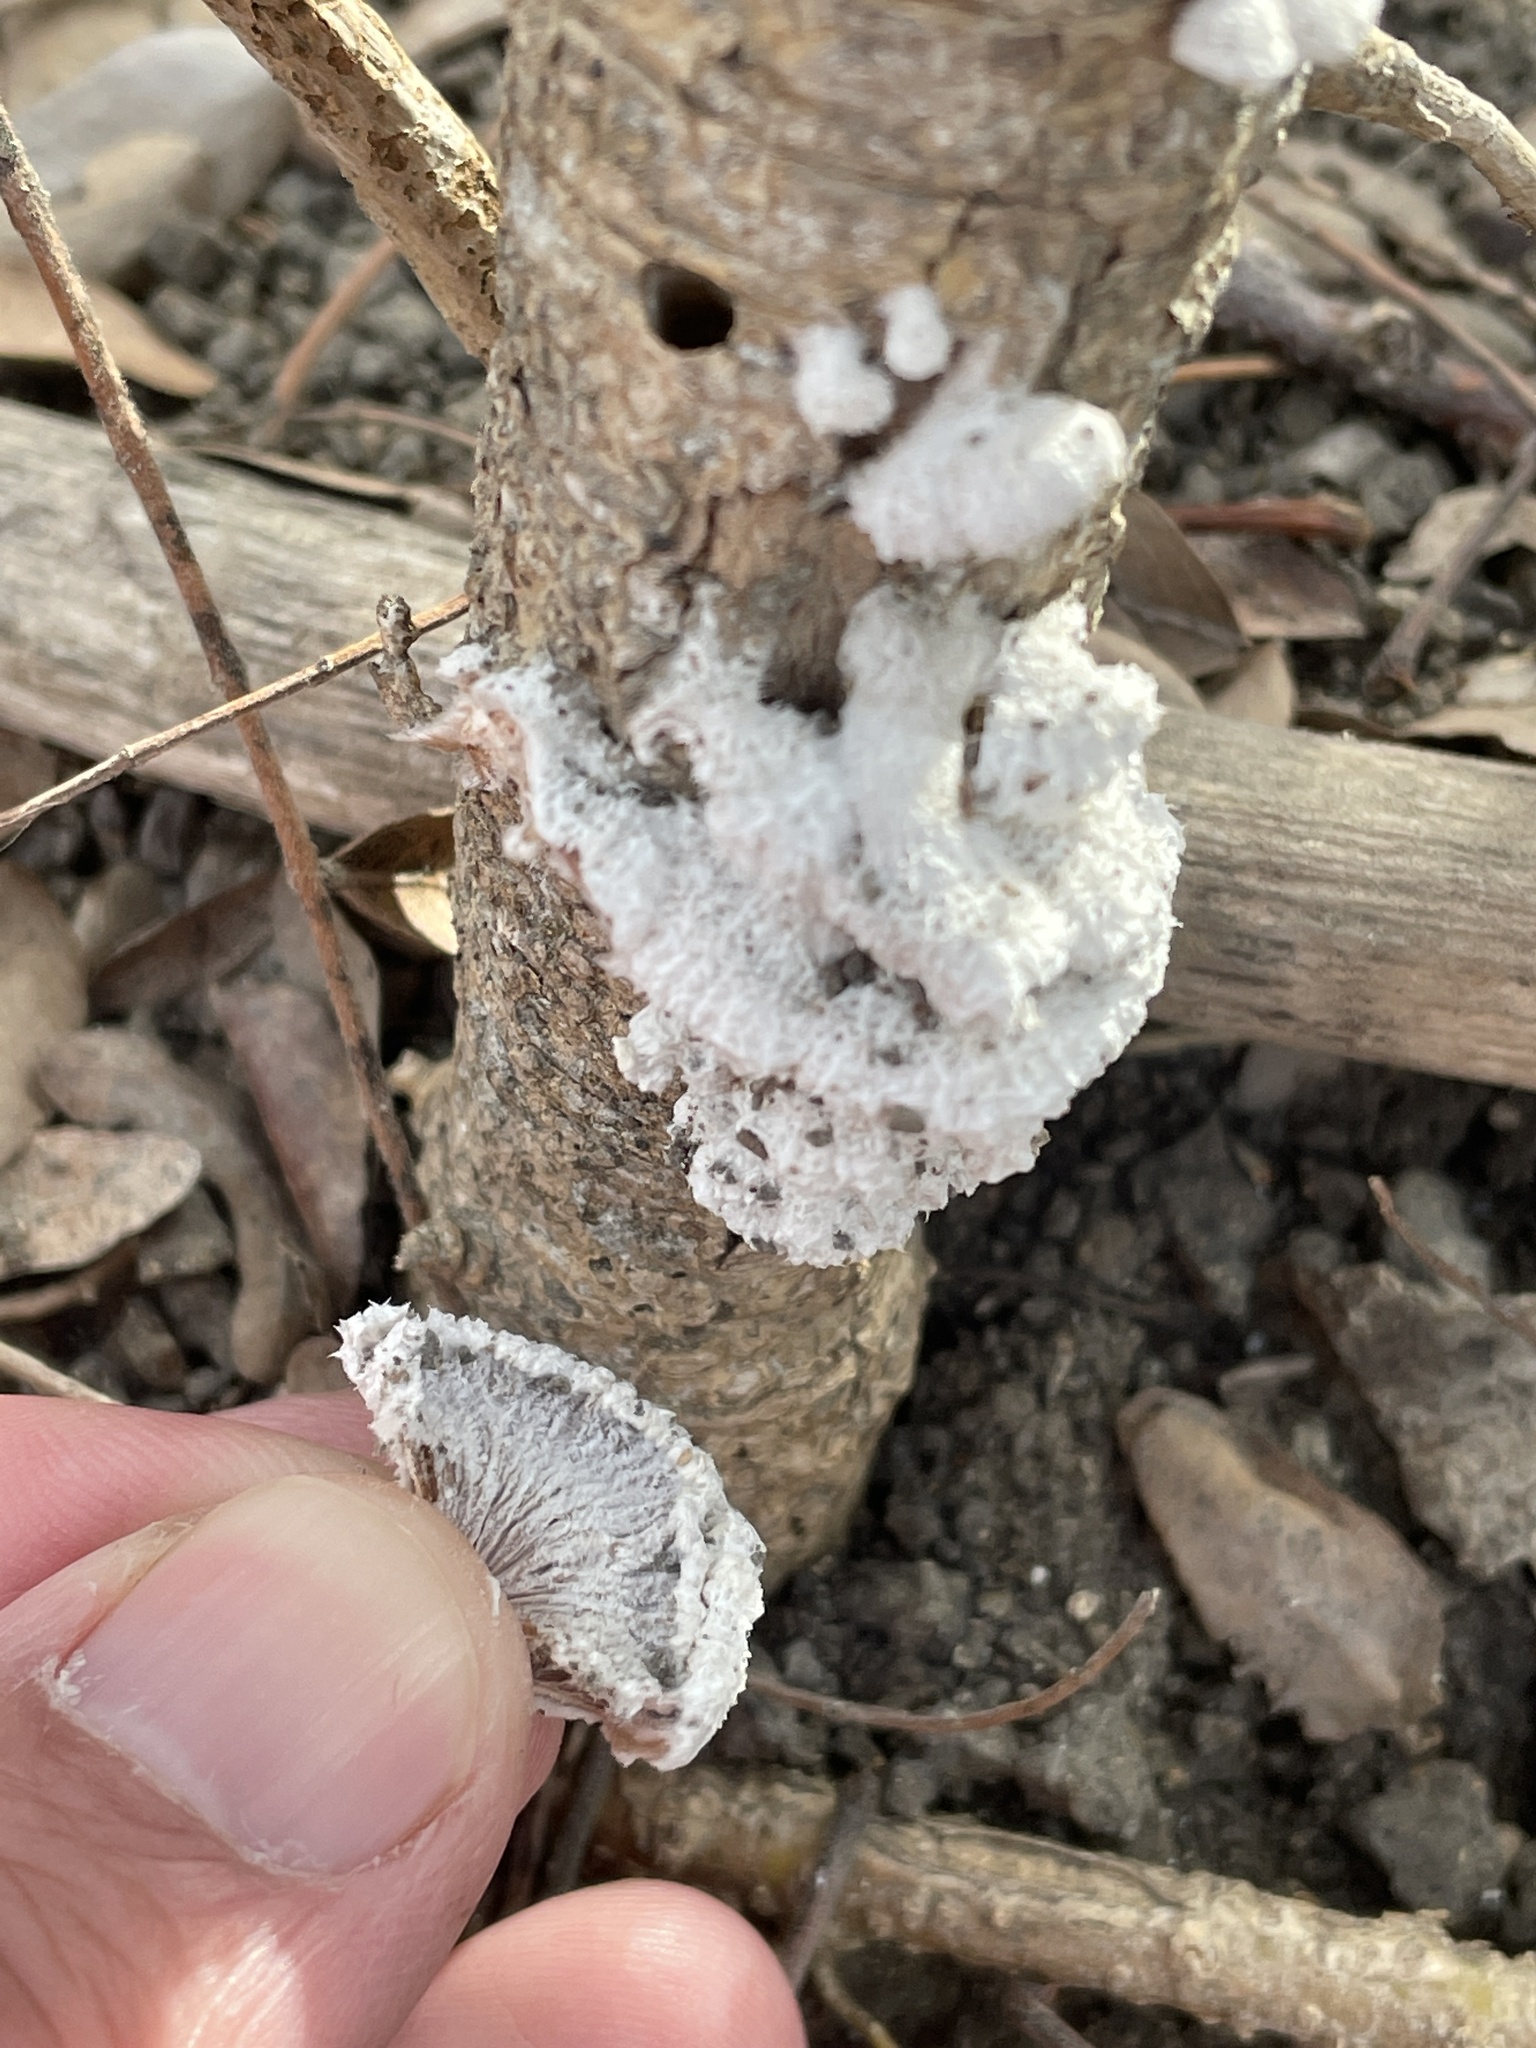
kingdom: Fungi
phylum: Basidiomycota
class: Agaricomycetes
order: Agaricales
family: Schizophyllaceae
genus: Schizophyllum
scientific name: Schizophyllum commune
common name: Common porecrust
